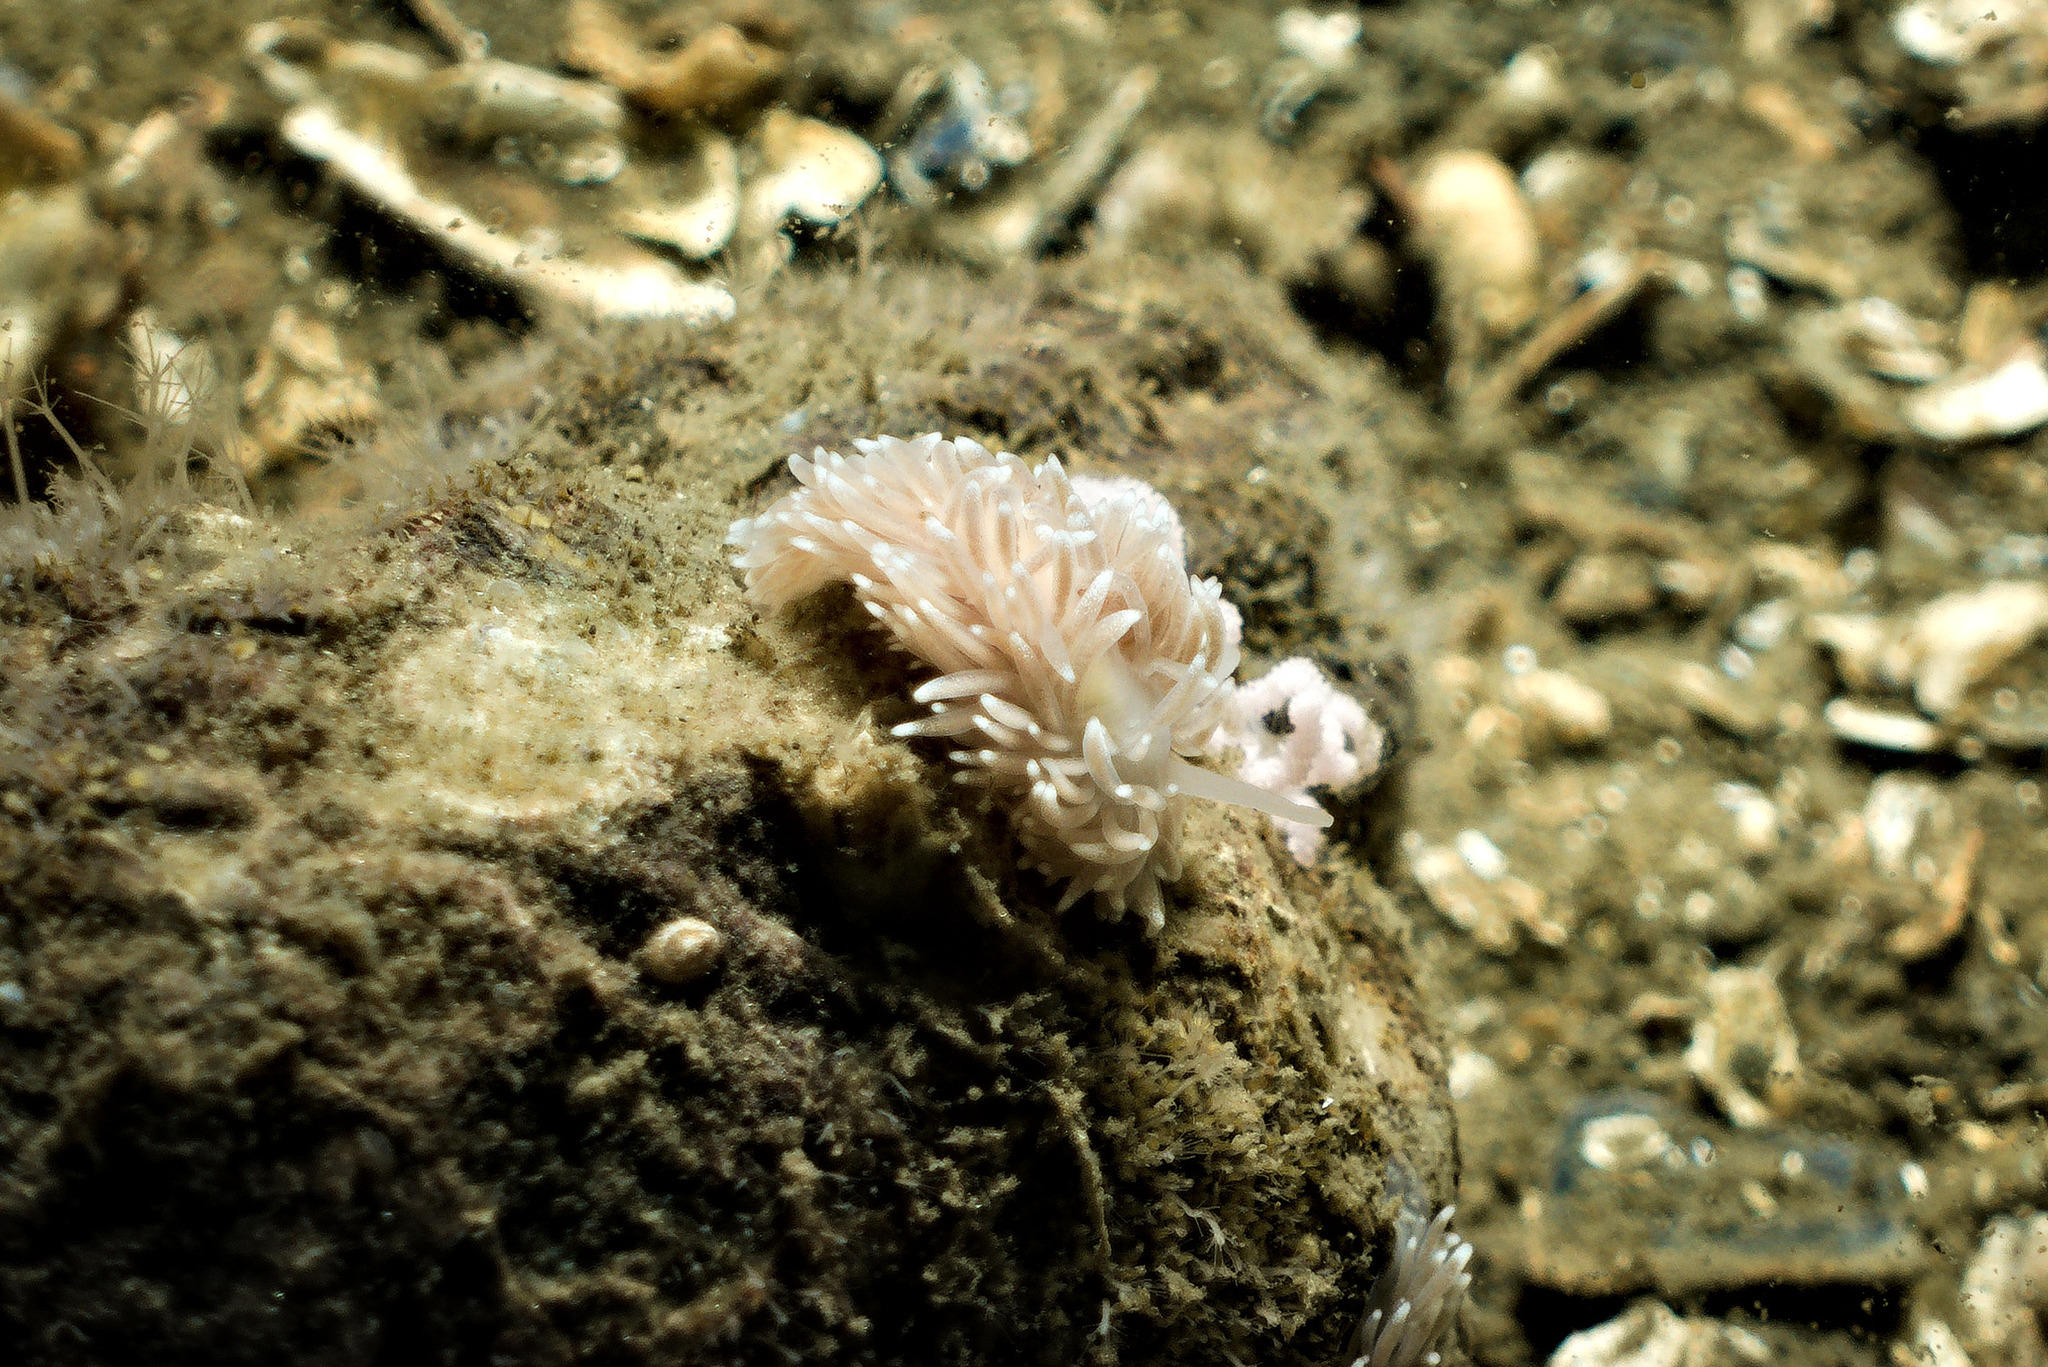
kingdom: Animalia
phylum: Mollusca
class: Gastropoda
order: Nudibranchia
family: Cuthonidae
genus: Cuthona
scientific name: Cuthona nana
